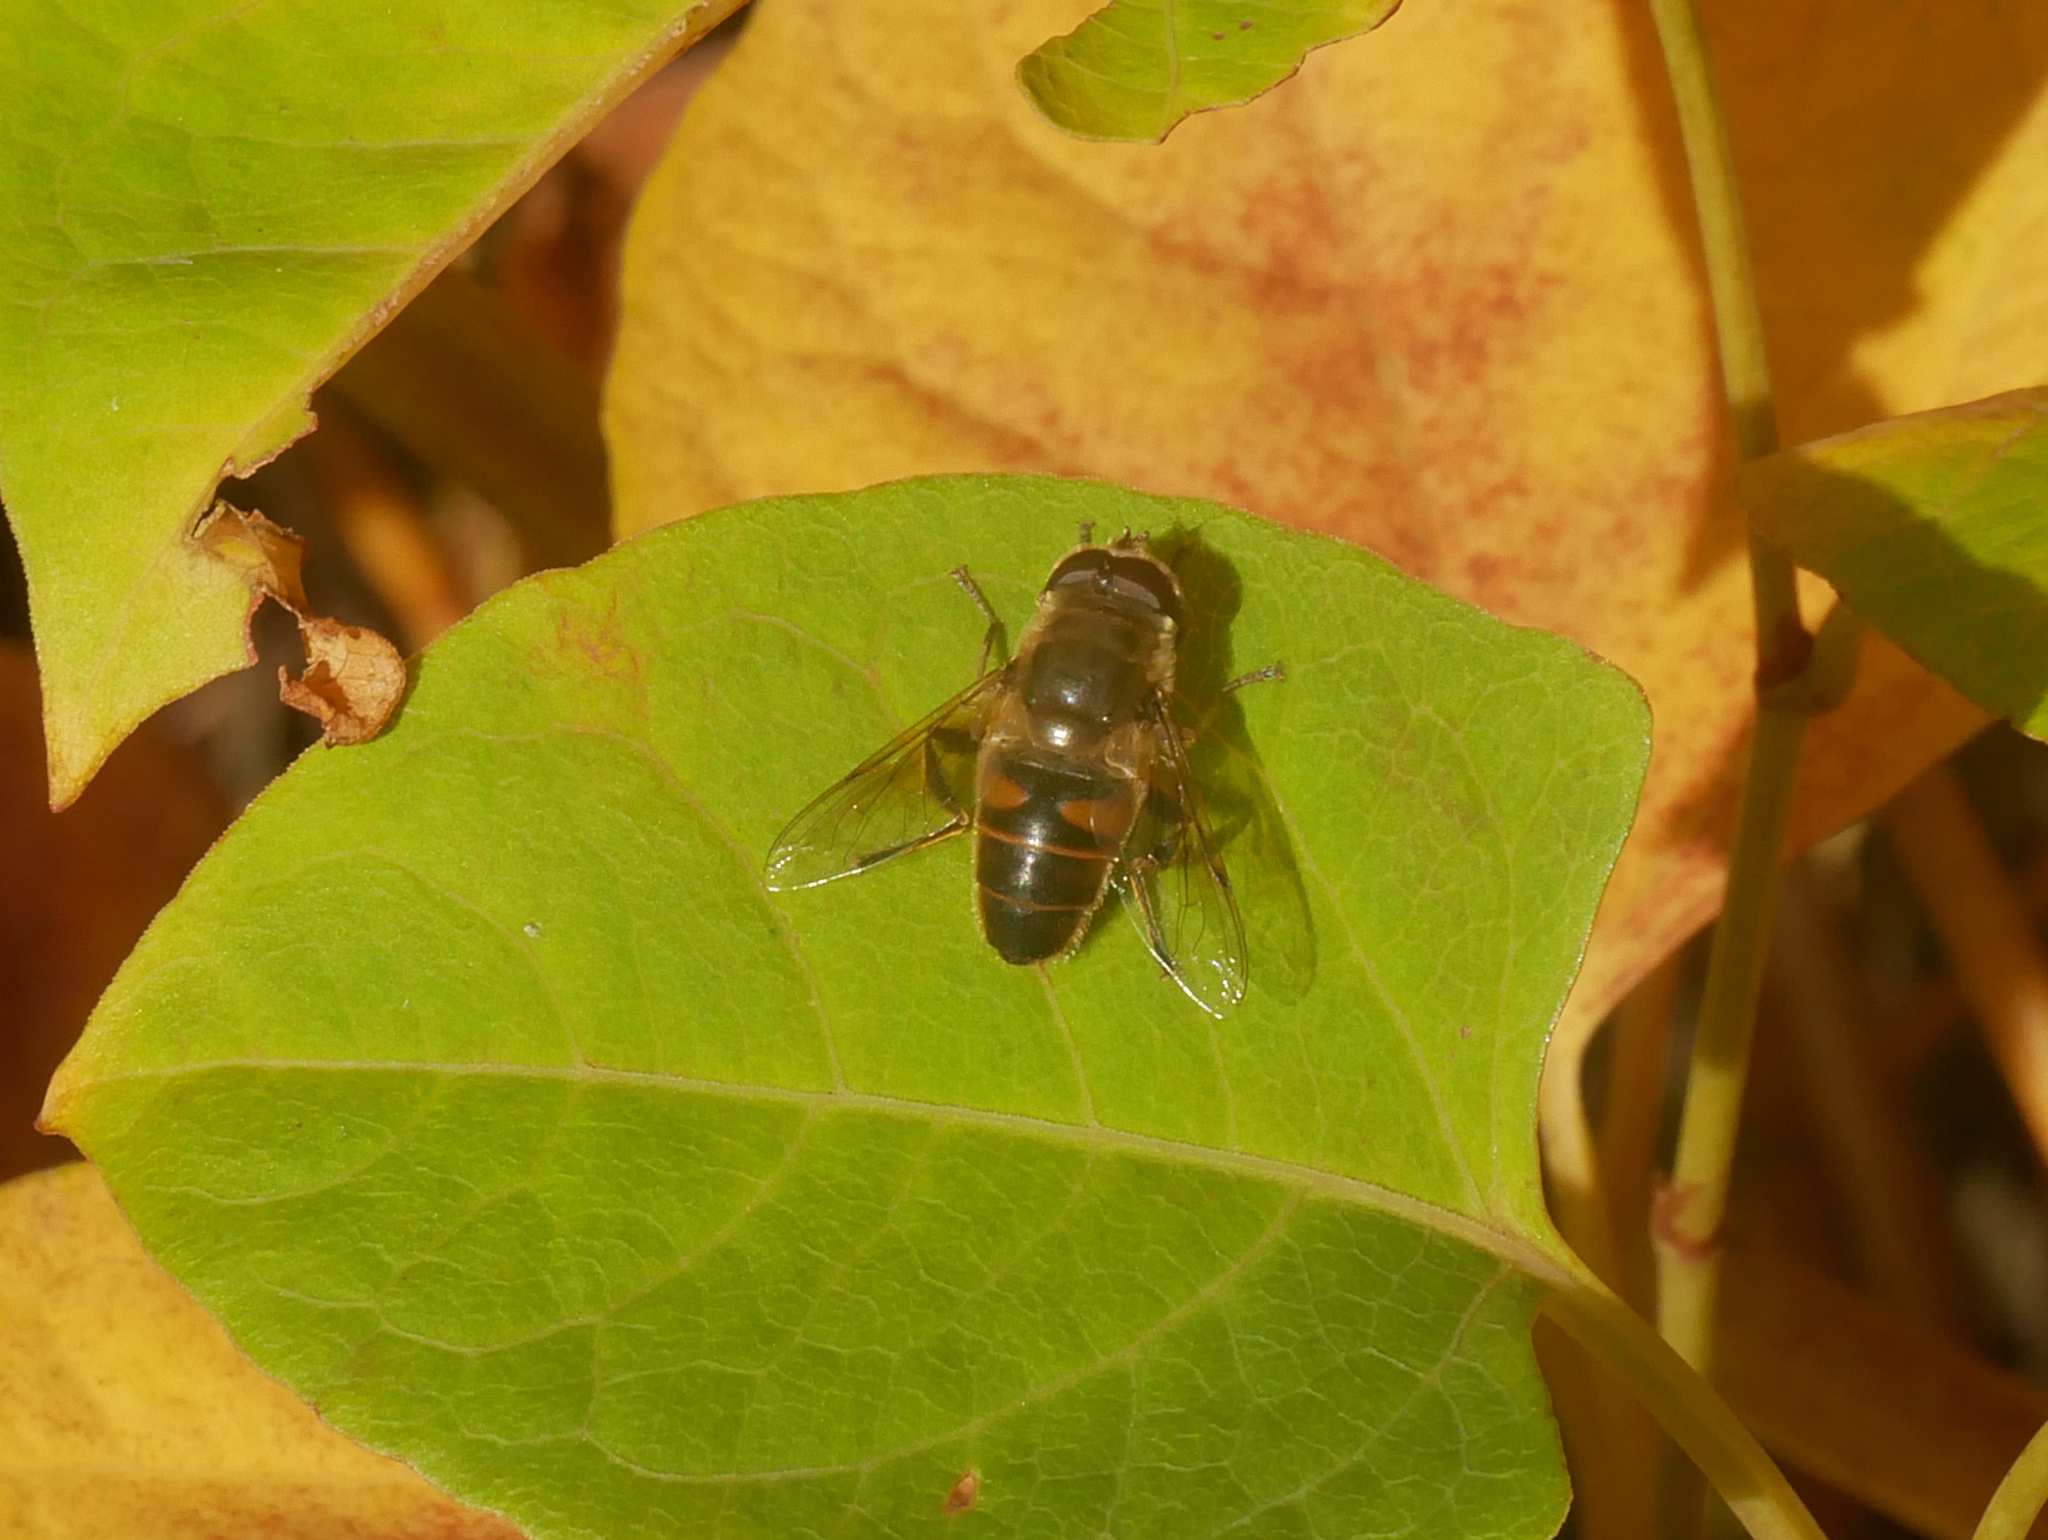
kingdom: Animalia
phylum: Arthropoda
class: Insecta
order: Diptera
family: Syrphidae
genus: Eristalis
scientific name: Eristalis tenax
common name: Drone fly
